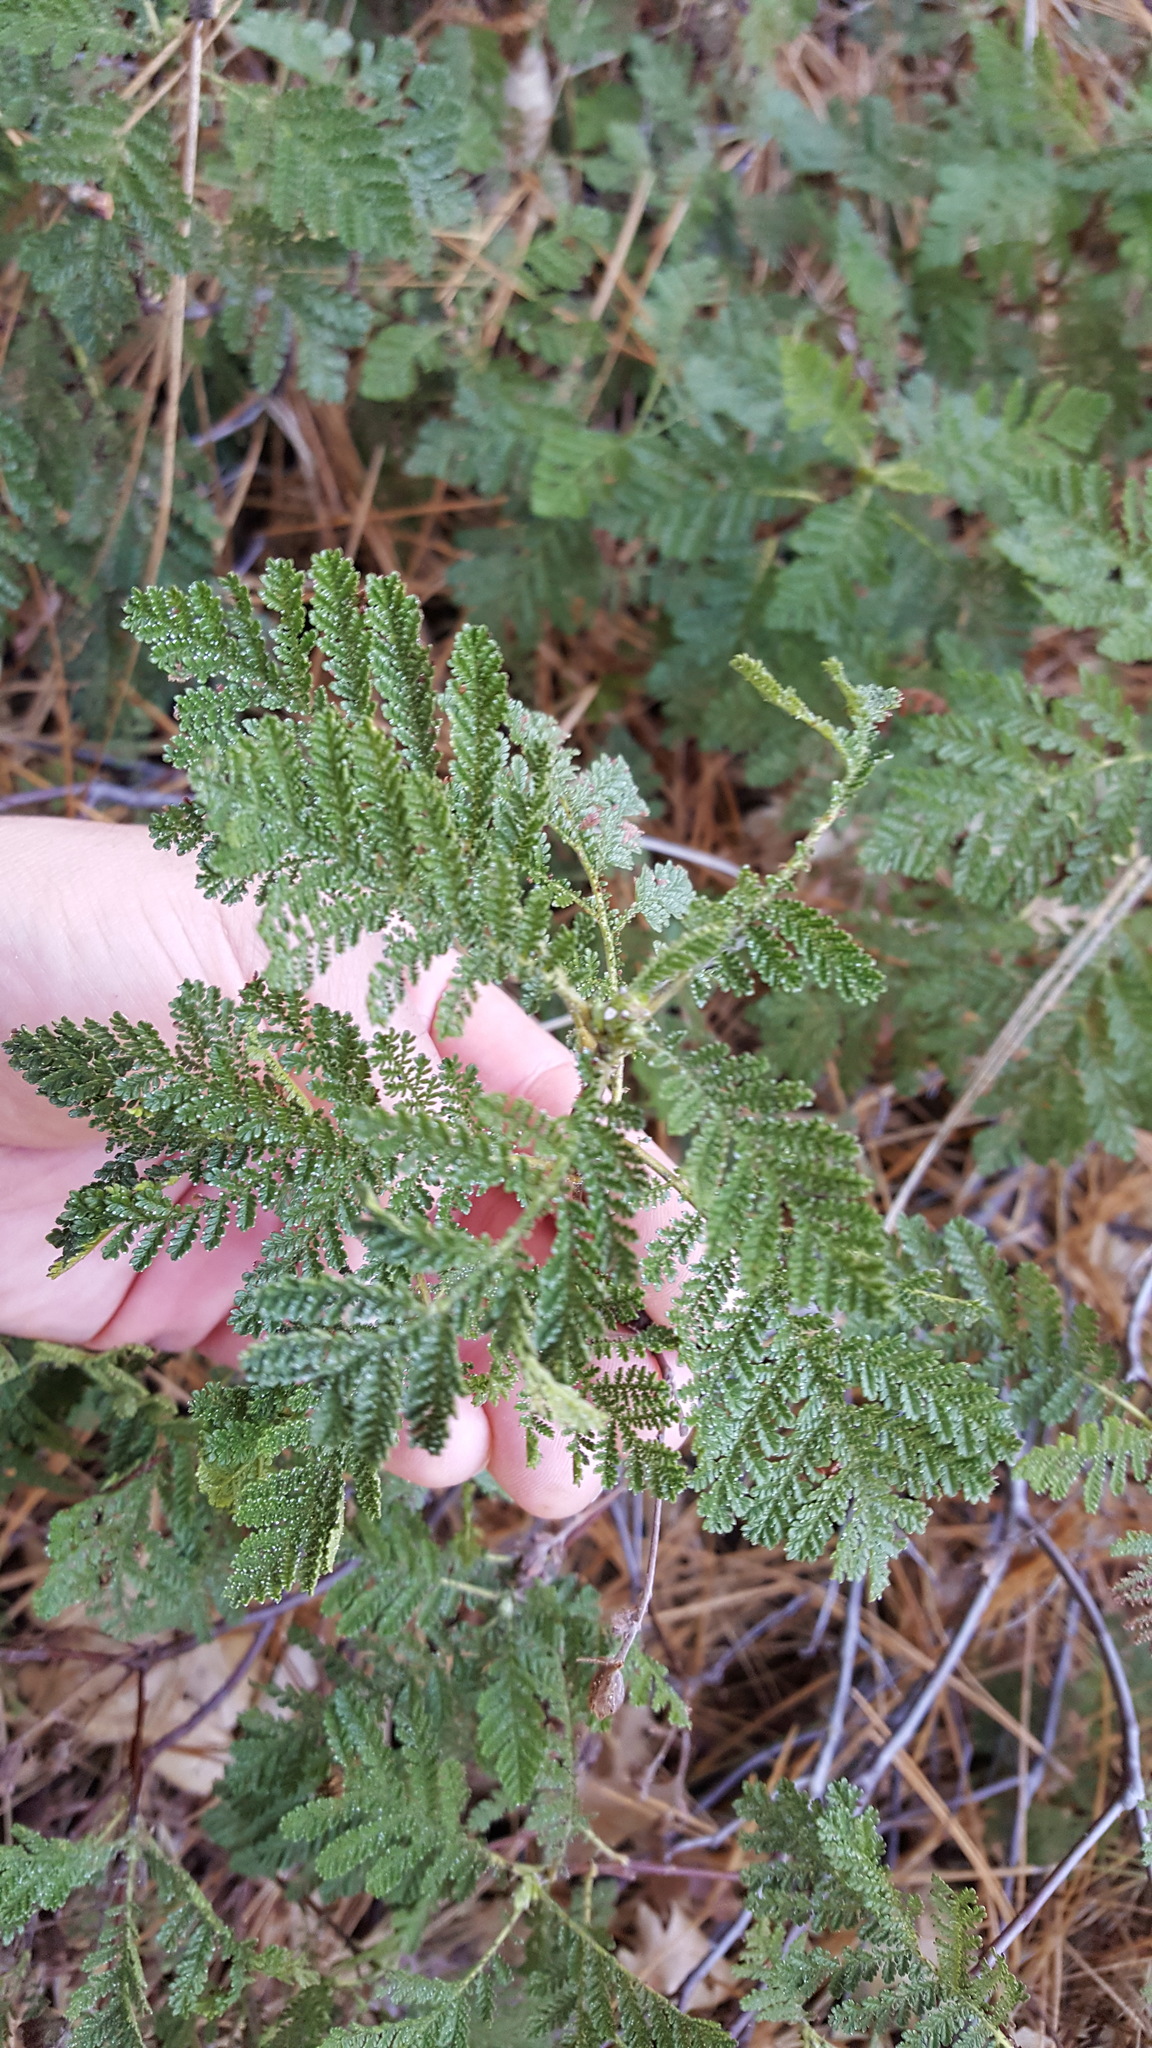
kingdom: Plantae
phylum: Tracheophyta
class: Magnoliopsida
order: Rosales
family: Rosaceae
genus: Chamaebatia
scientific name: Chamaebatia foliolosa
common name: Mountain misery
